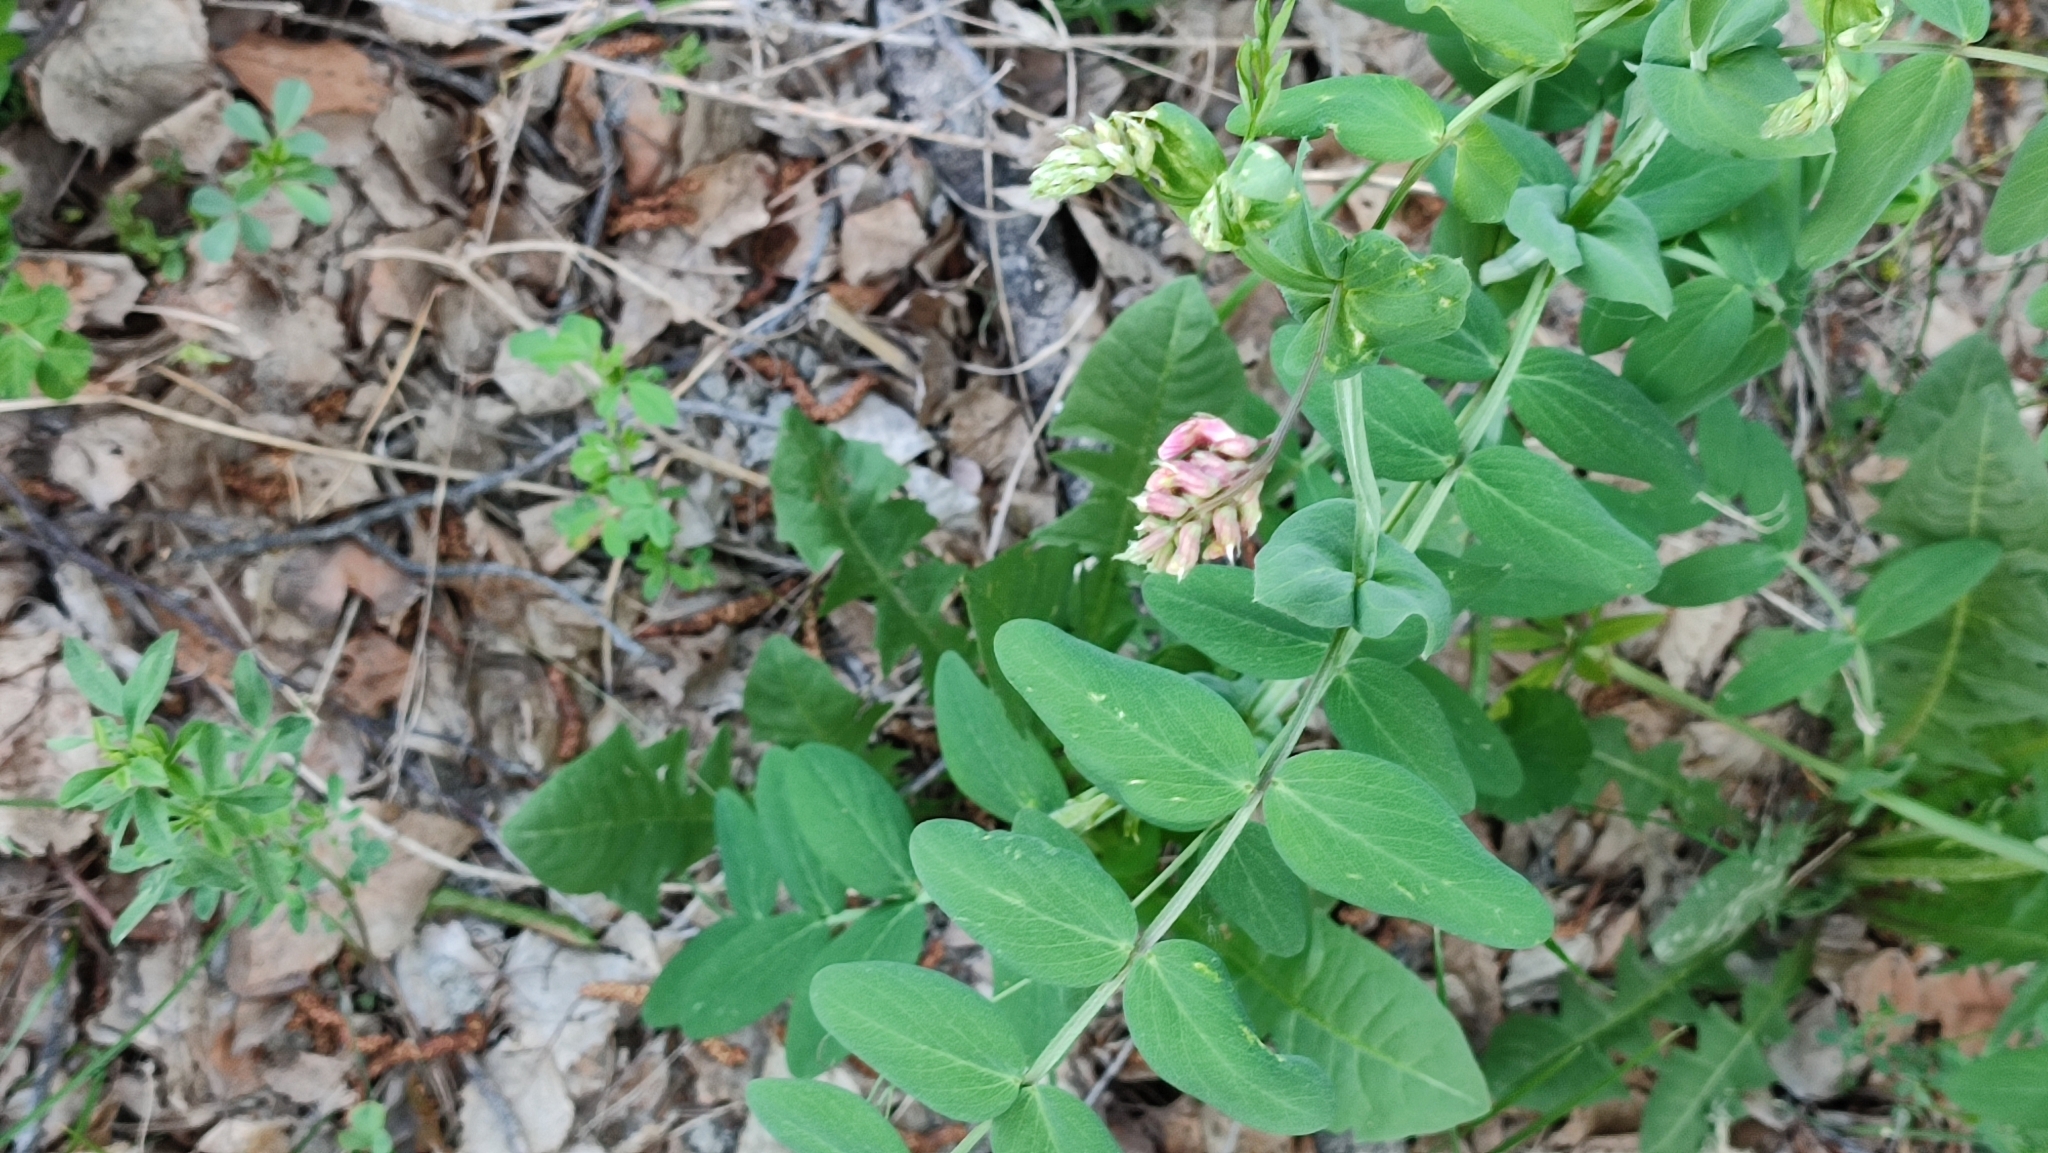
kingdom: Plantae
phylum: Tracheophyta
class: Magnoliopsida
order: Fabales
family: Fabaceae
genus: Lathyrus
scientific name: Lathyrus pisiformis
